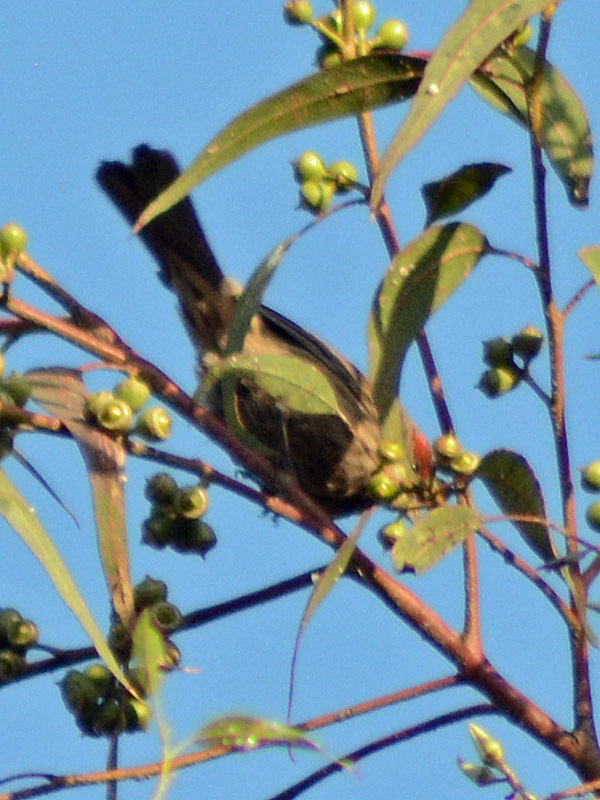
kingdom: Animalia
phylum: Chordata
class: Aves
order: Passeriformes
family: Fringillidae
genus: Haemorhous
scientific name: Haemorhous mexicanus
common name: House finch
